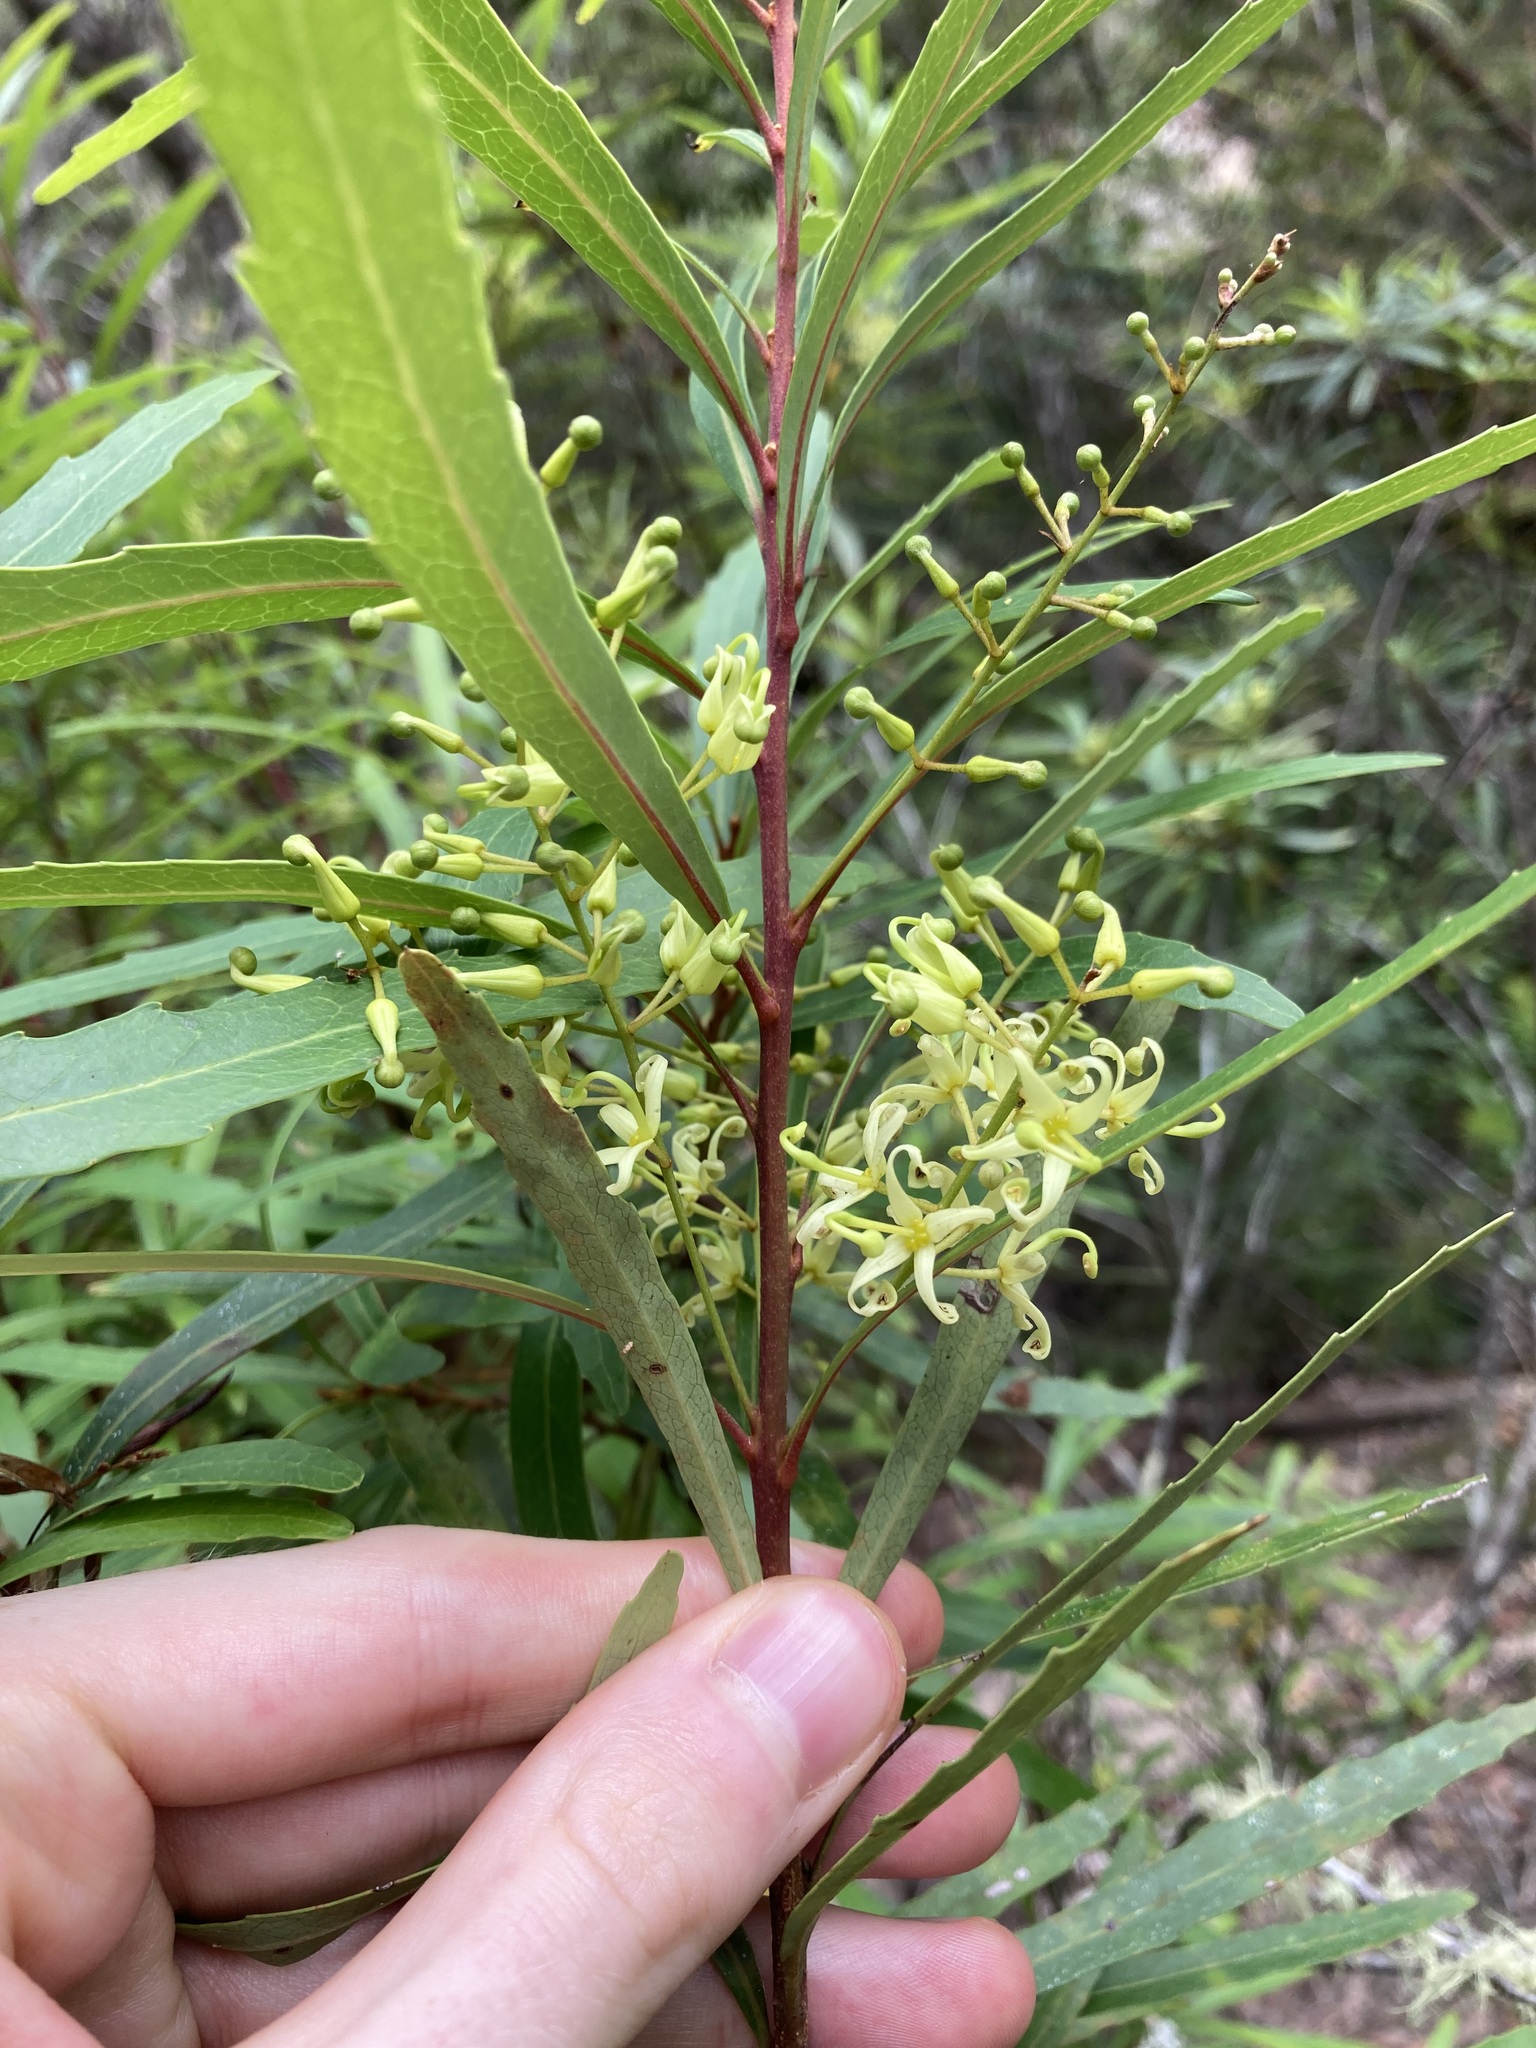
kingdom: Plantae
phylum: Tracheophyta
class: Magnoliopsida
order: Proteales
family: Proteaceae
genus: Lomatia
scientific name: Lomatia myricoides
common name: Longleaf lomatia
